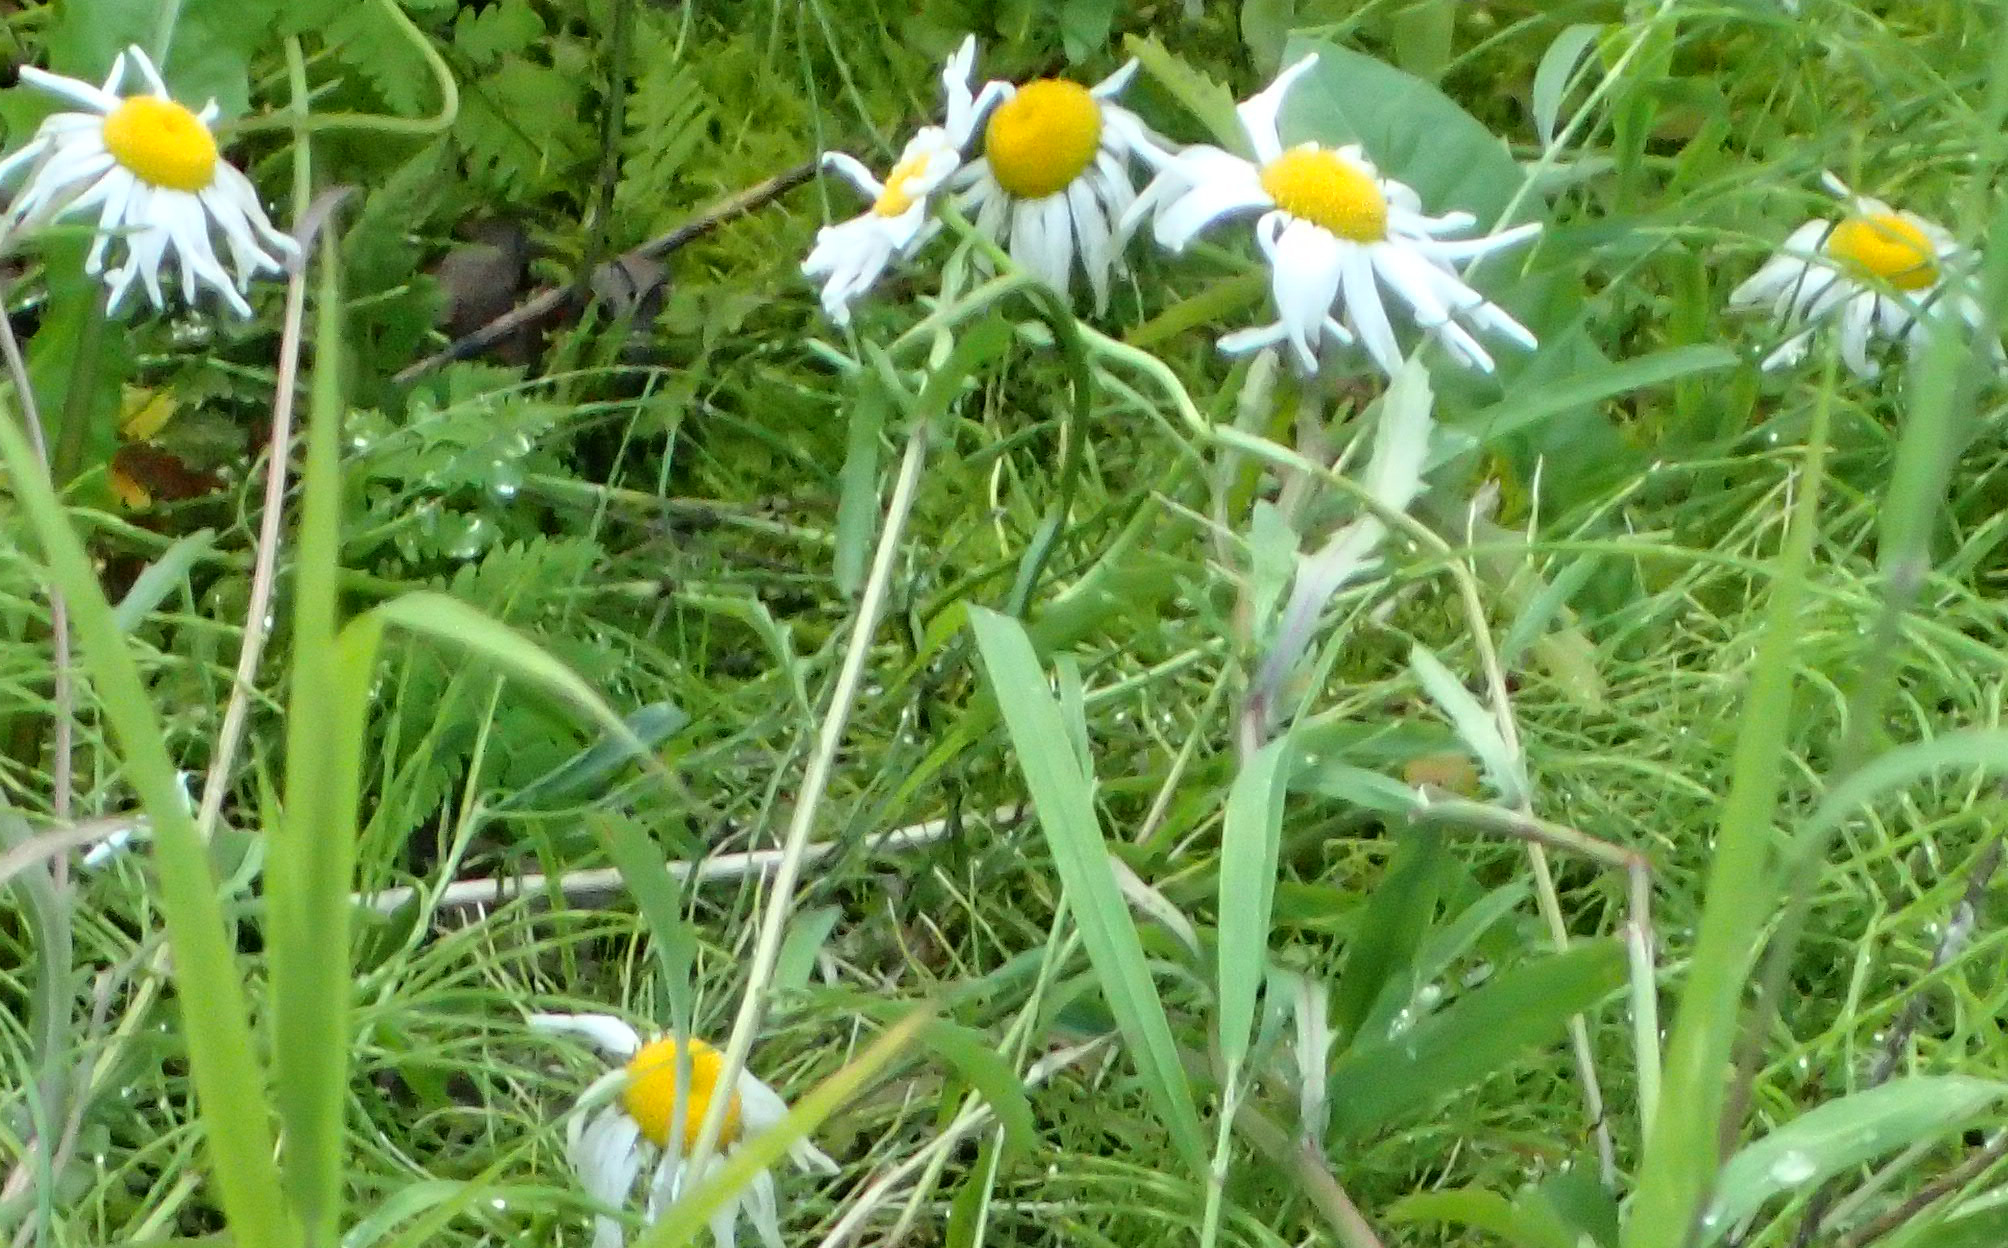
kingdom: Plantae
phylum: Tracheophyta
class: Magnoliopsida
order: Asterales
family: Asteraceae
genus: Leucanthemum
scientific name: Leucanthemum vulgare
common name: Oxeye daisy
